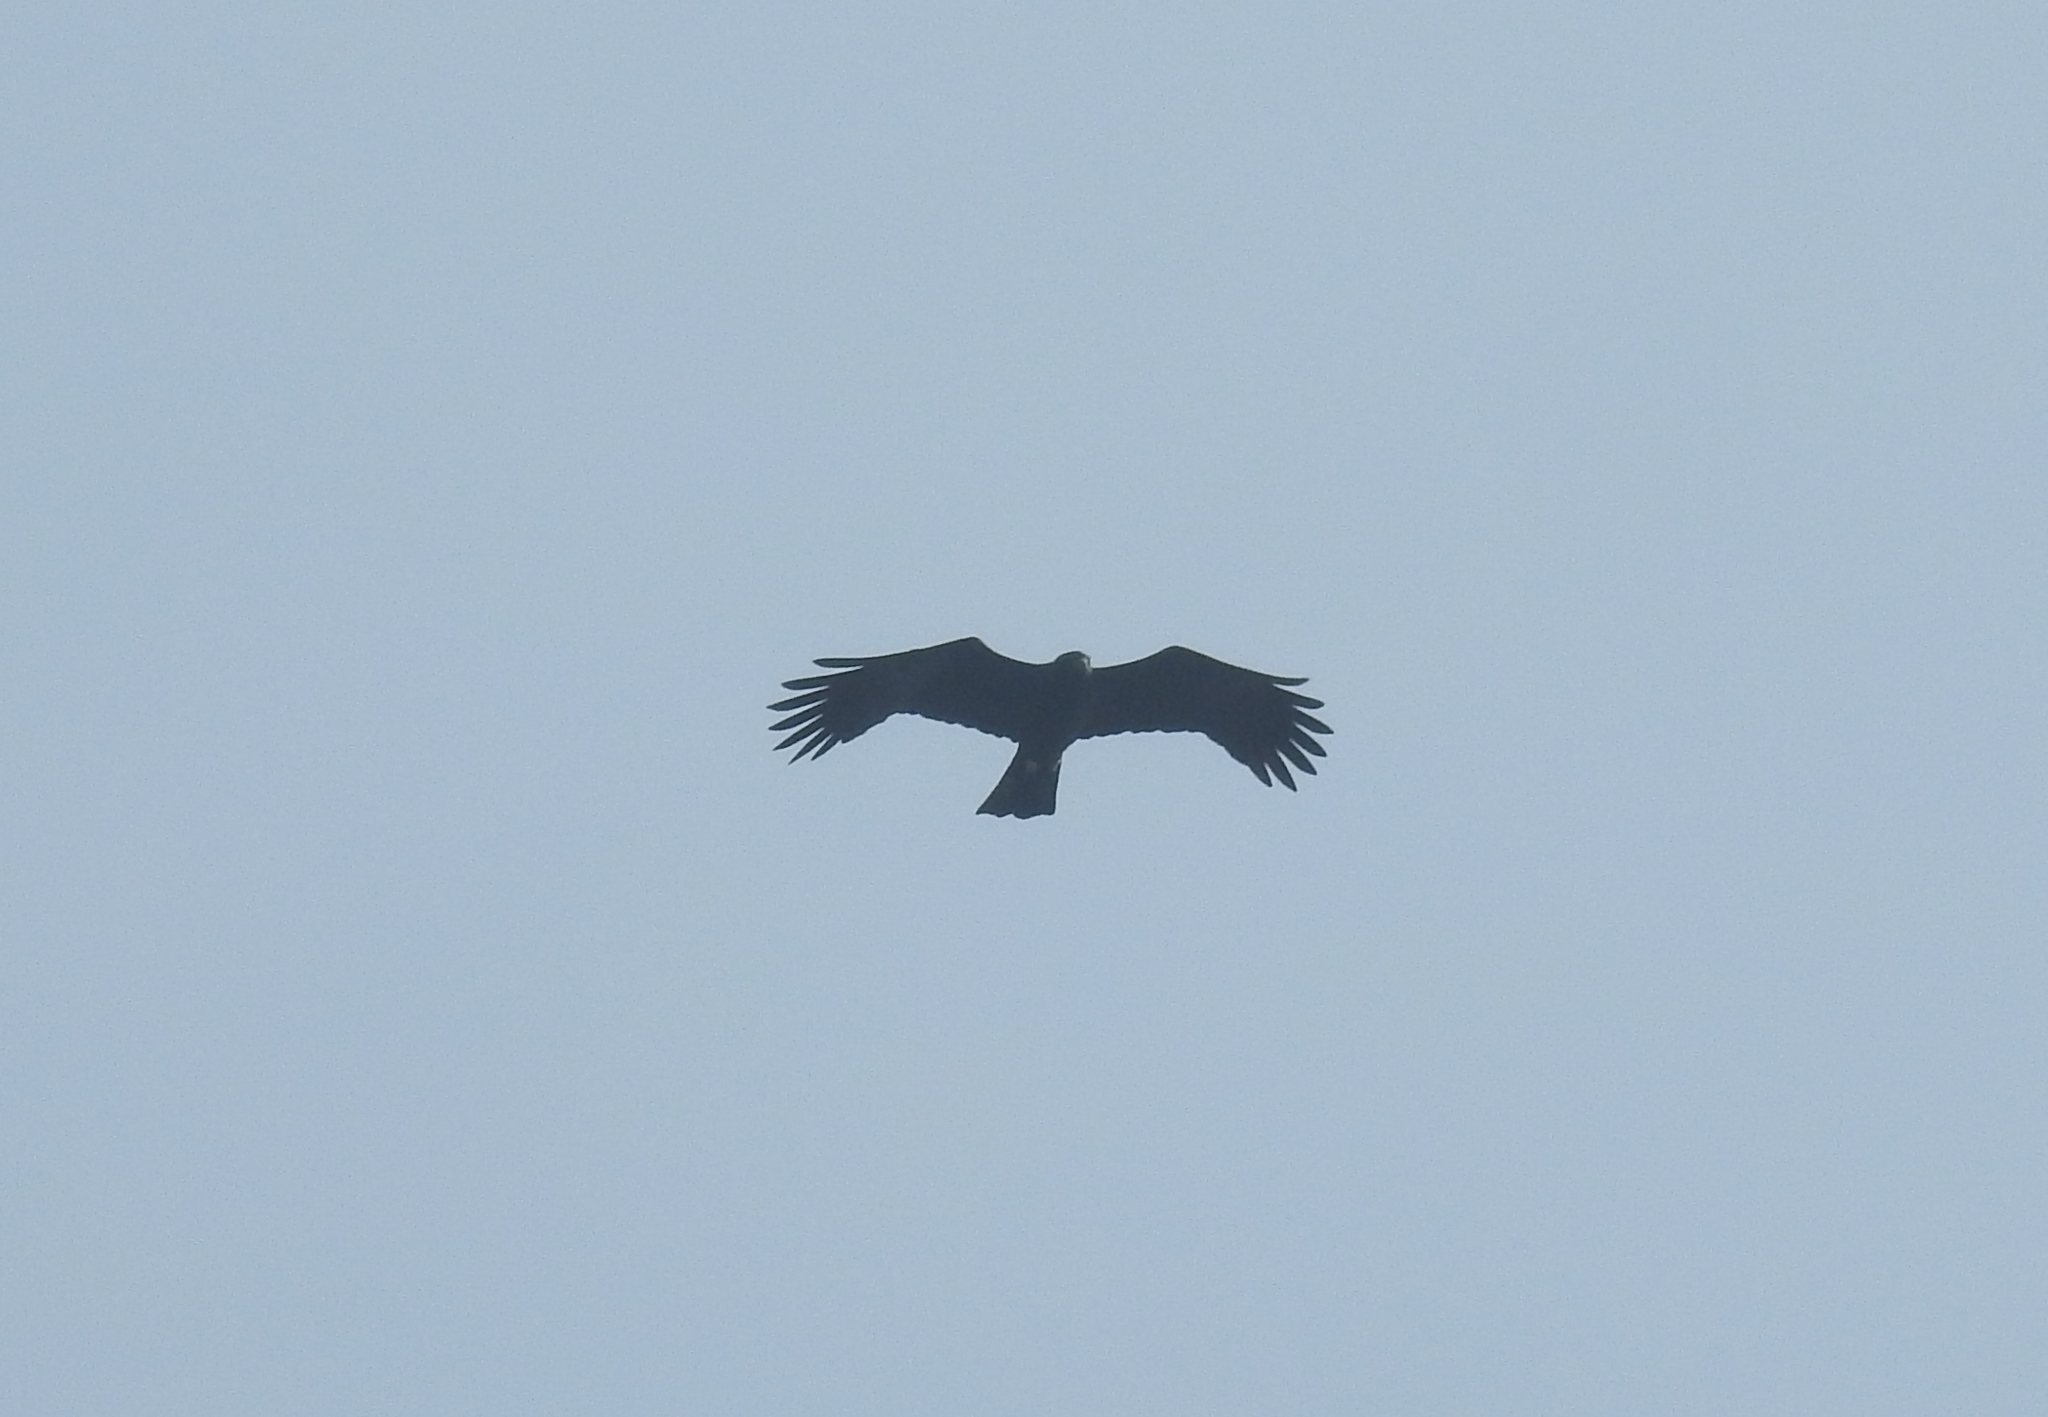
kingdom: Animalia
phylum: Chordata
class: Aves
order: Accipitriformes
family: Accipitridae
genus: Ictinaetus
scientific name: Ictinaetus malayensis
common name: Black eagle
